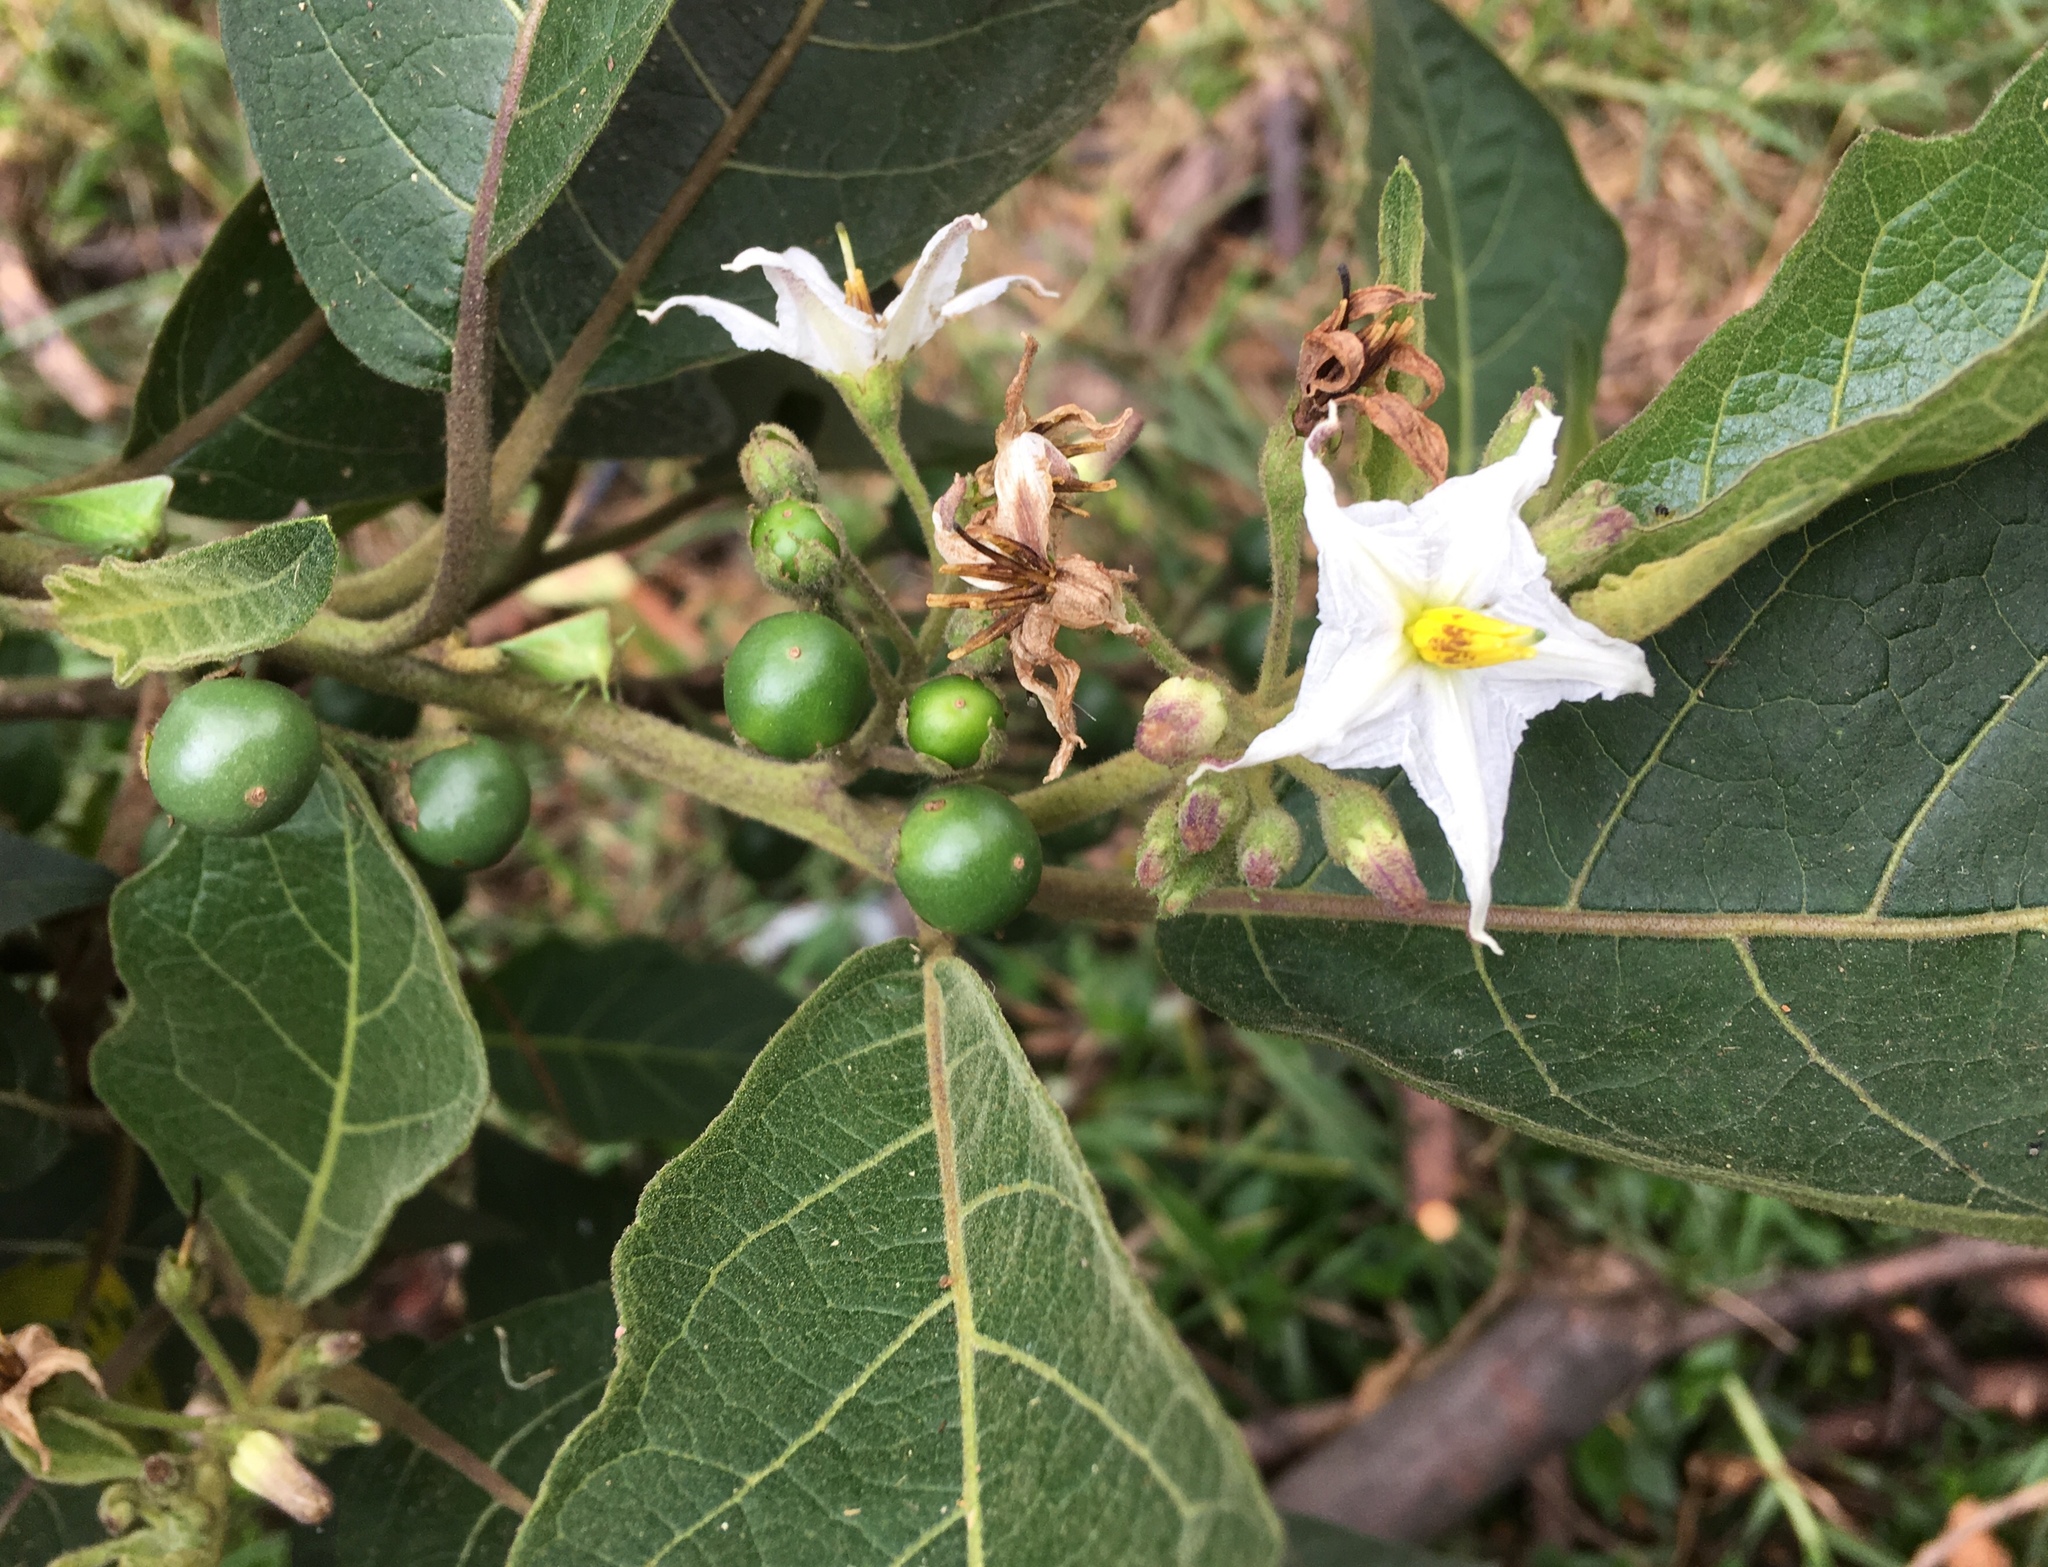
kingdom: Plantae
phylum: Tracheophyta
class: Magnoliopsida
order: Solanales
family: Solanaceae
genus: Solanum
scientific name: Solanum stellatiglandulosum
